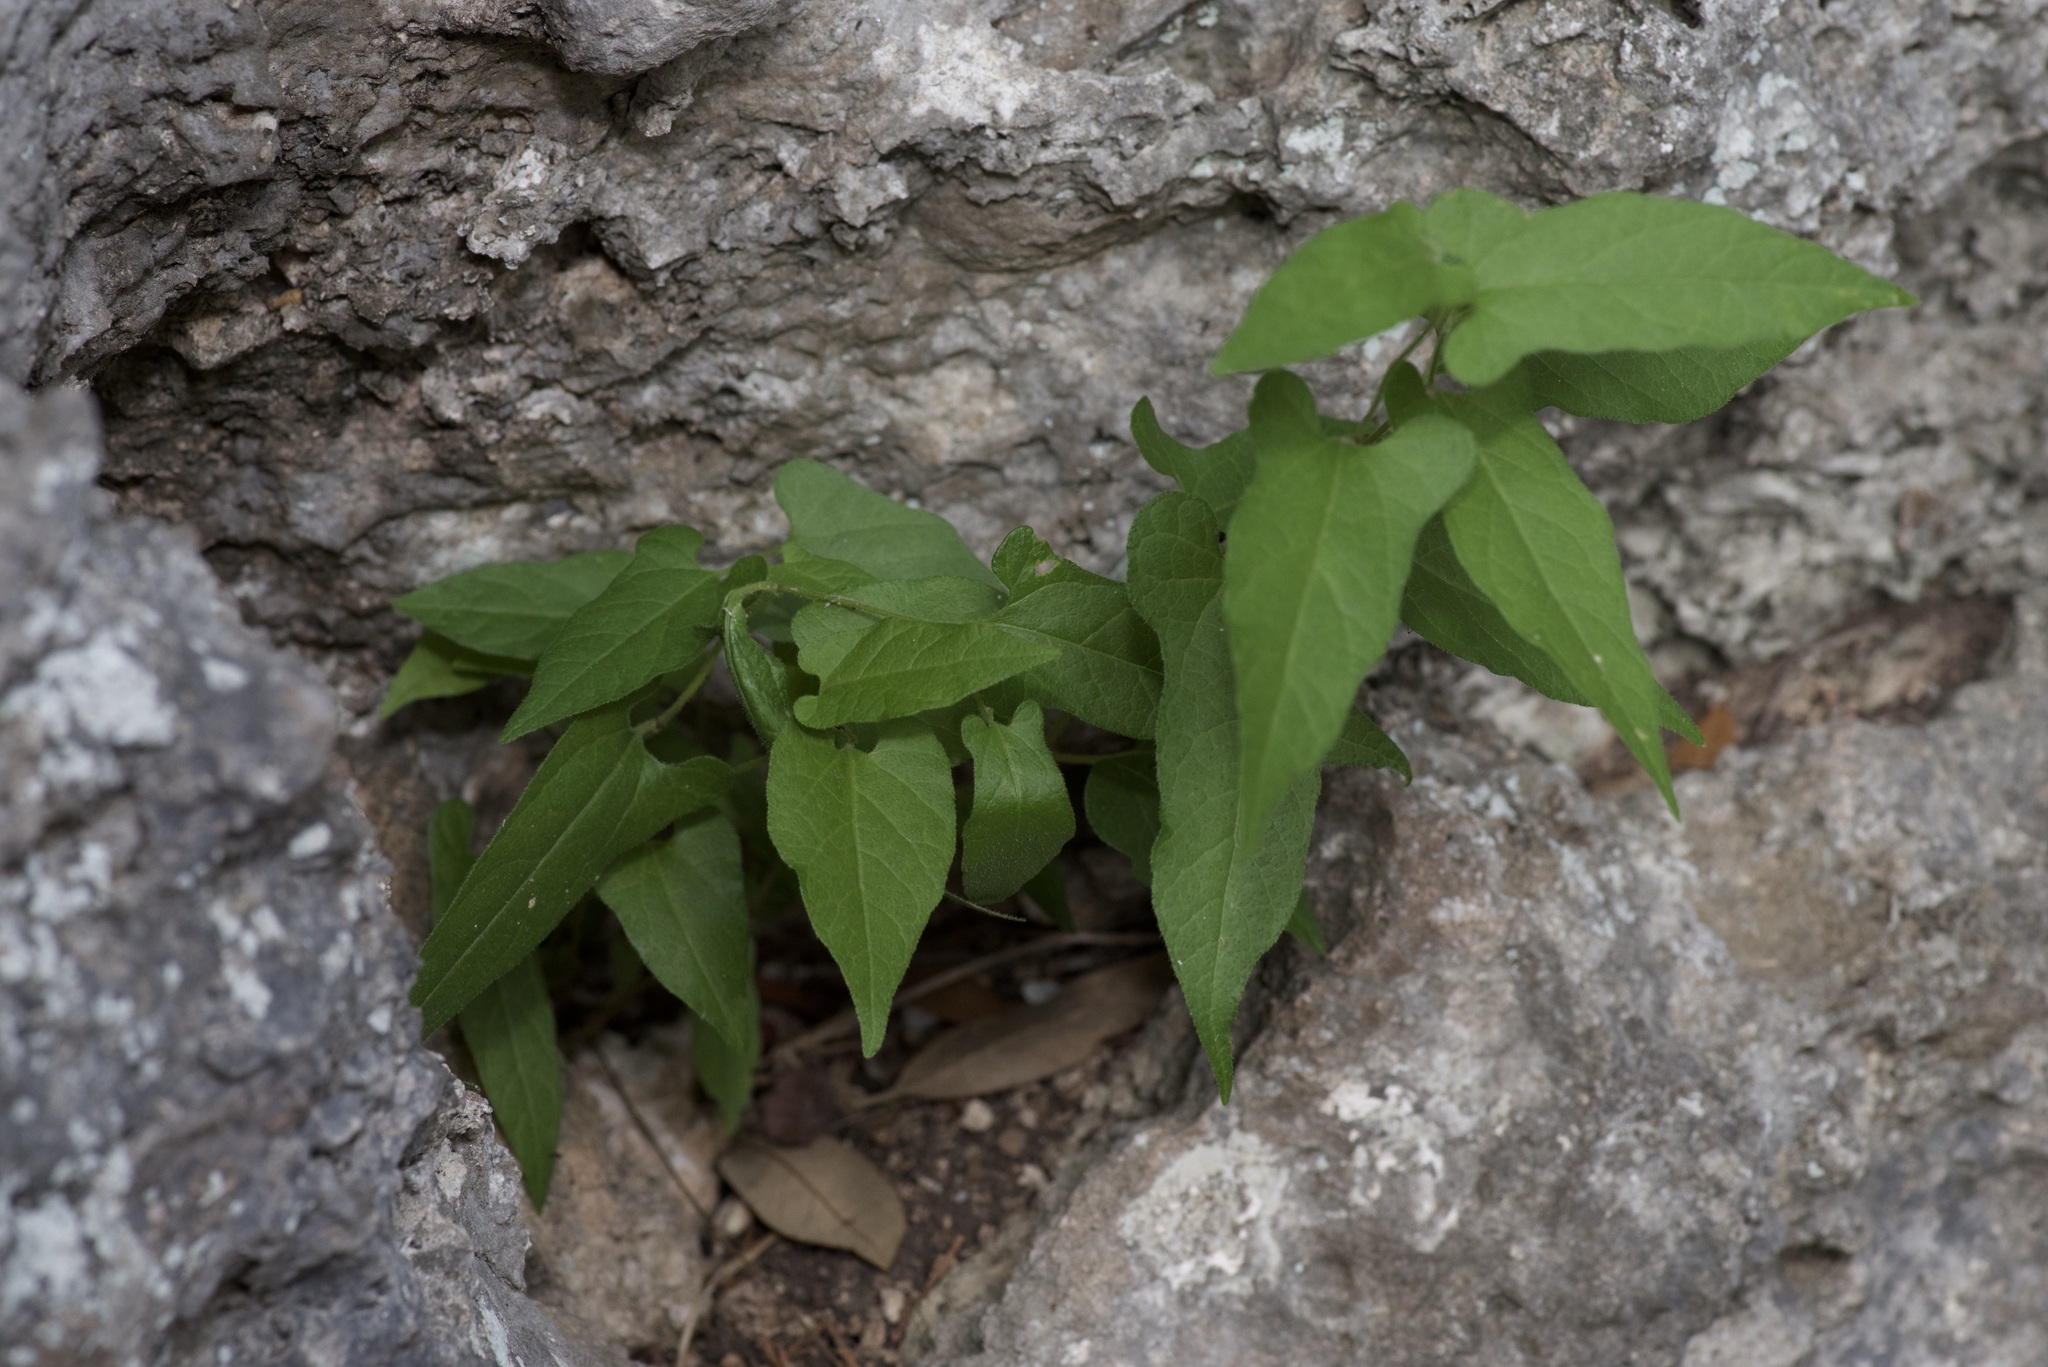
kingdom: Plantae
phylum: Tracheophyta
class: Magnoliopsida
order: Piperales
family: Aristolochiaceae
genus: Endodeca
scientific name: Endodeca serpentaria
